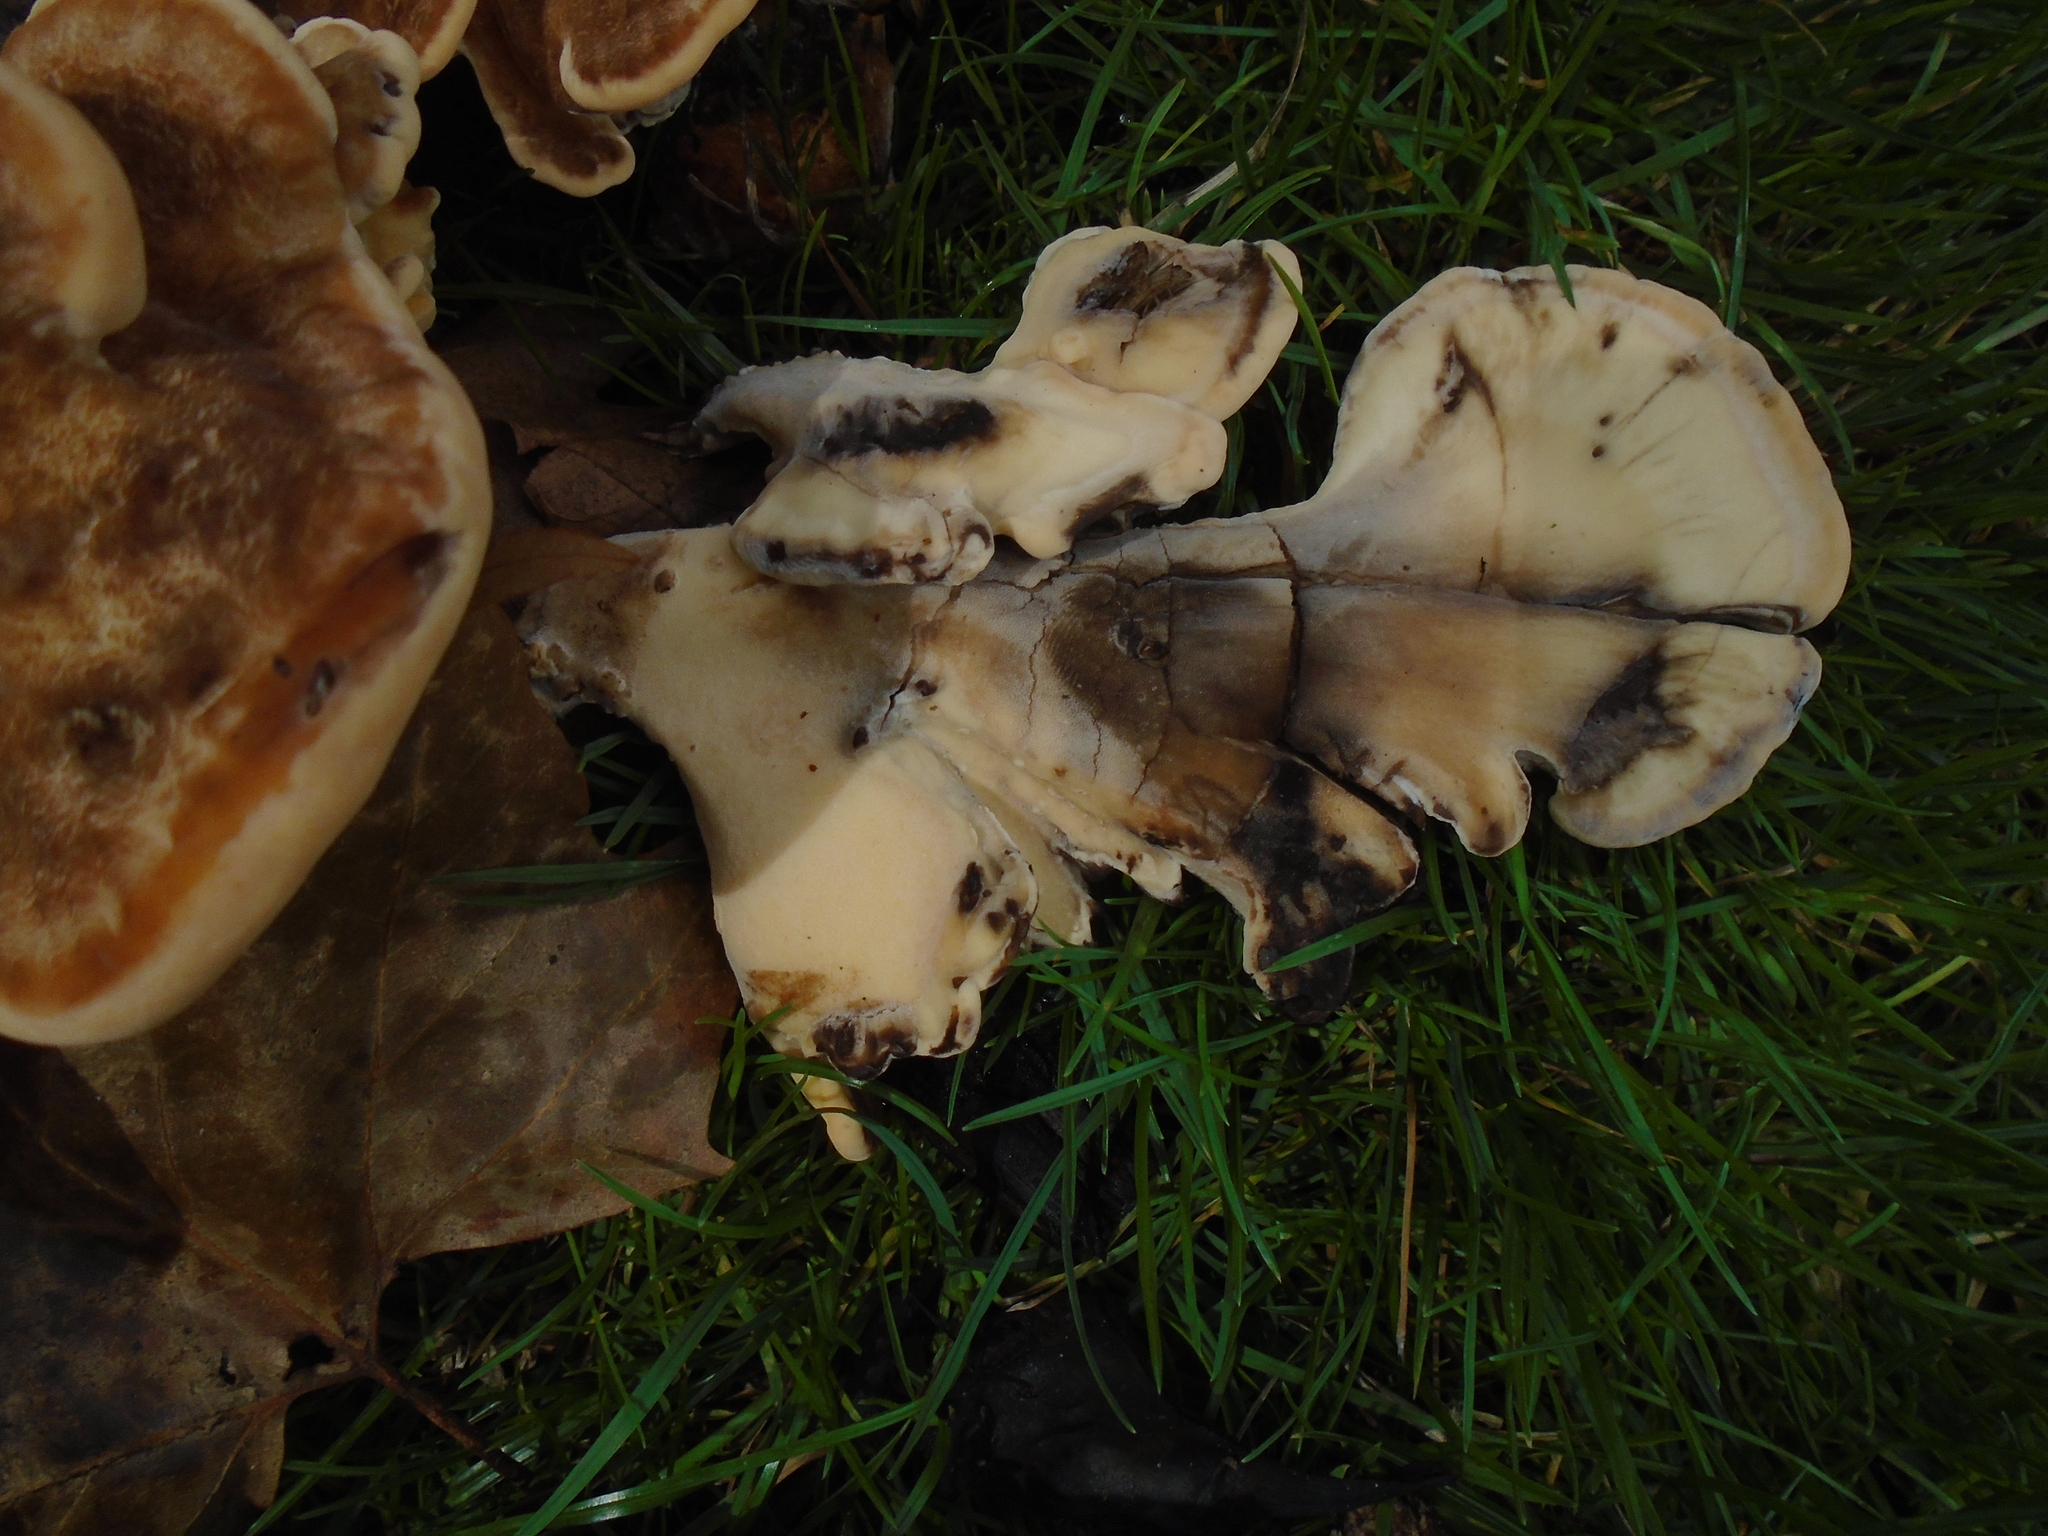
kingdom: Fungi
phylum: Basidiomycota
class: Agaricomycetes
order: Polyporales
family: Meripilaceae
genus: Meripilus
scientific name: Meripilus giganteus
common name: Giant polypore
